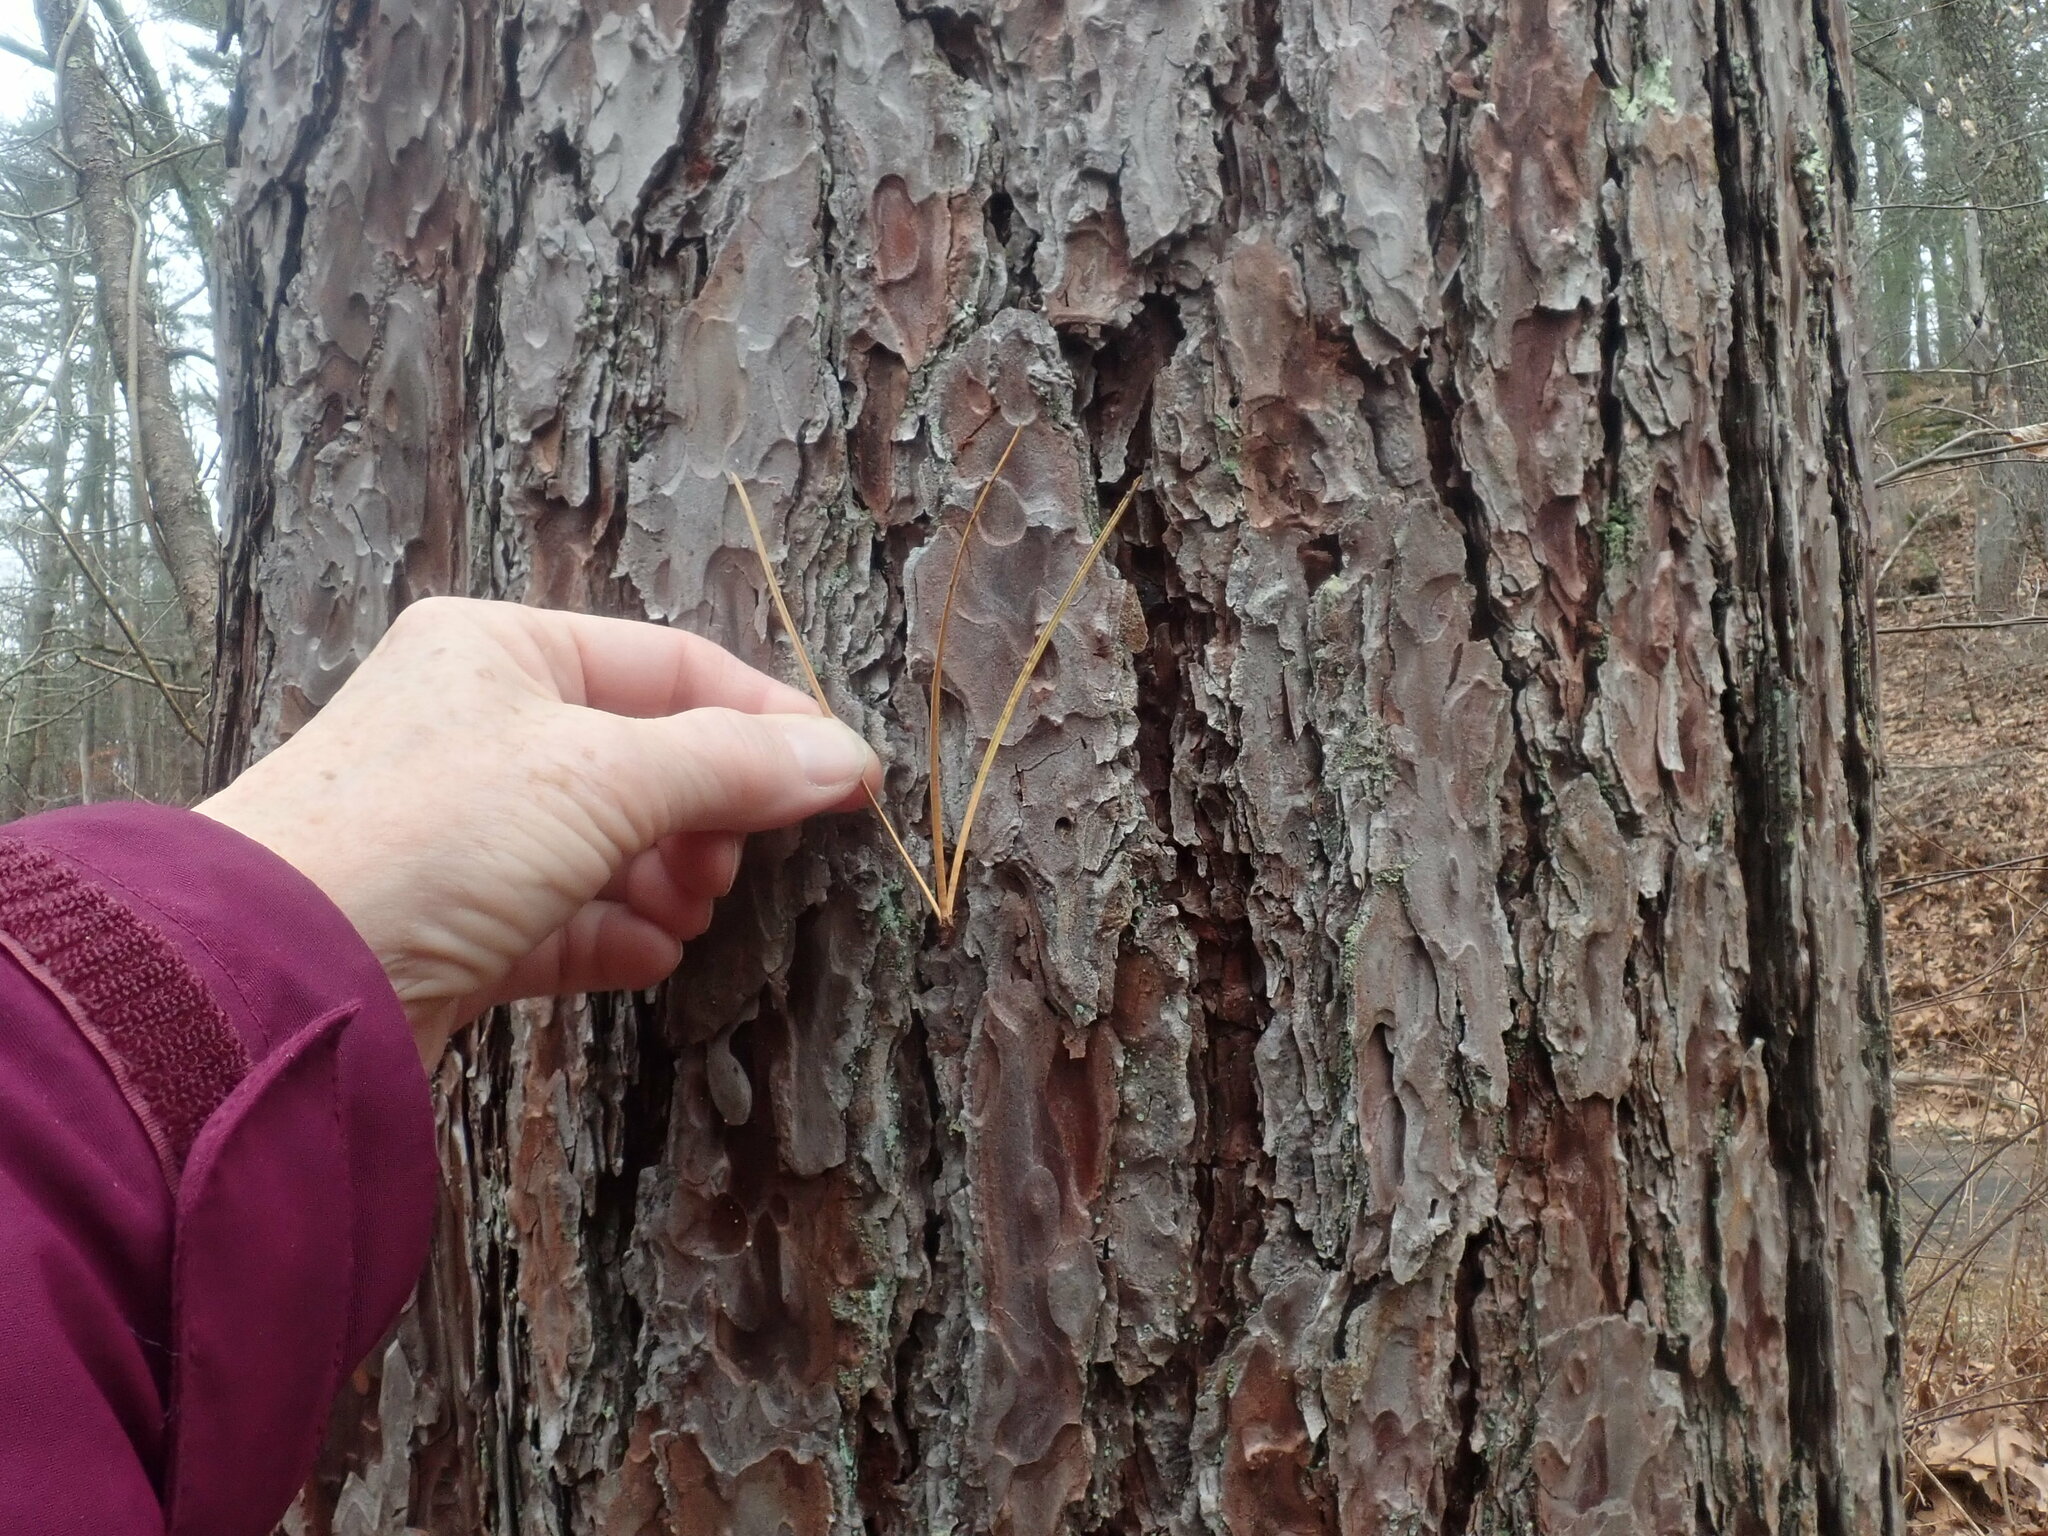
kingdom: Plantae
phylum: Tracheophyta
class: Pinopsida
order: Pinales
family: Pinaceae
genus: Pinus
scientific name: Pinus rigida
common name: Pitch pine
